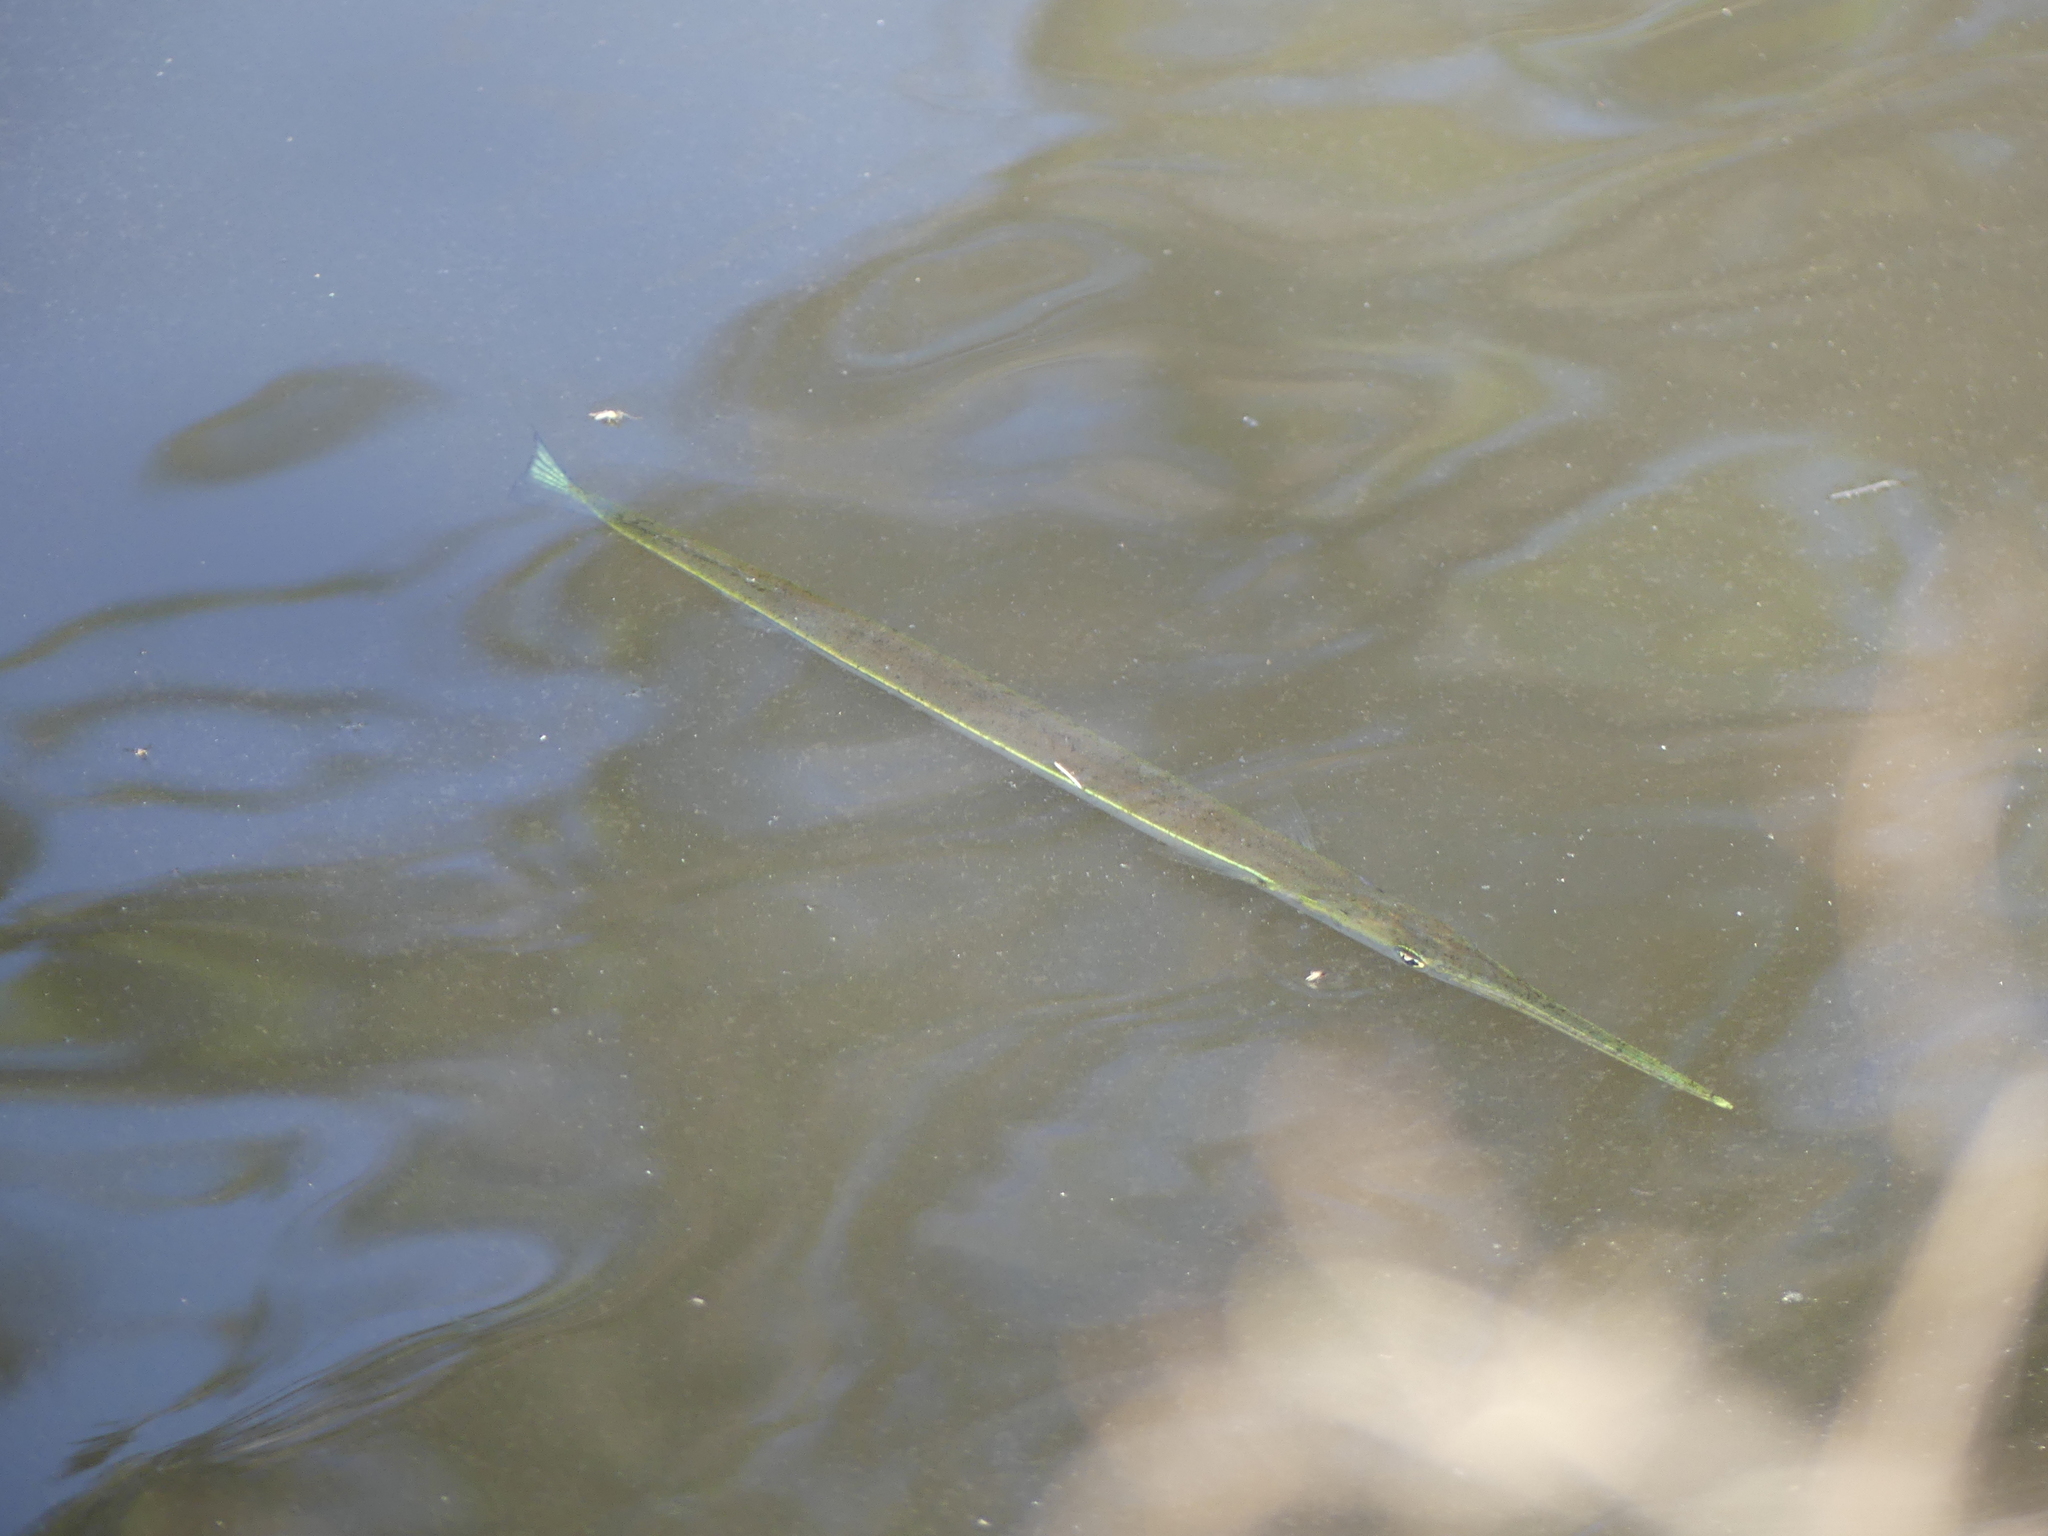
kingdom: Animalia
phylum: Chordata
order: Beloniformes
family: Belonidae
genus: Strongylura
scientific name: Strongylura marina
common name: Atlantic needlefish
